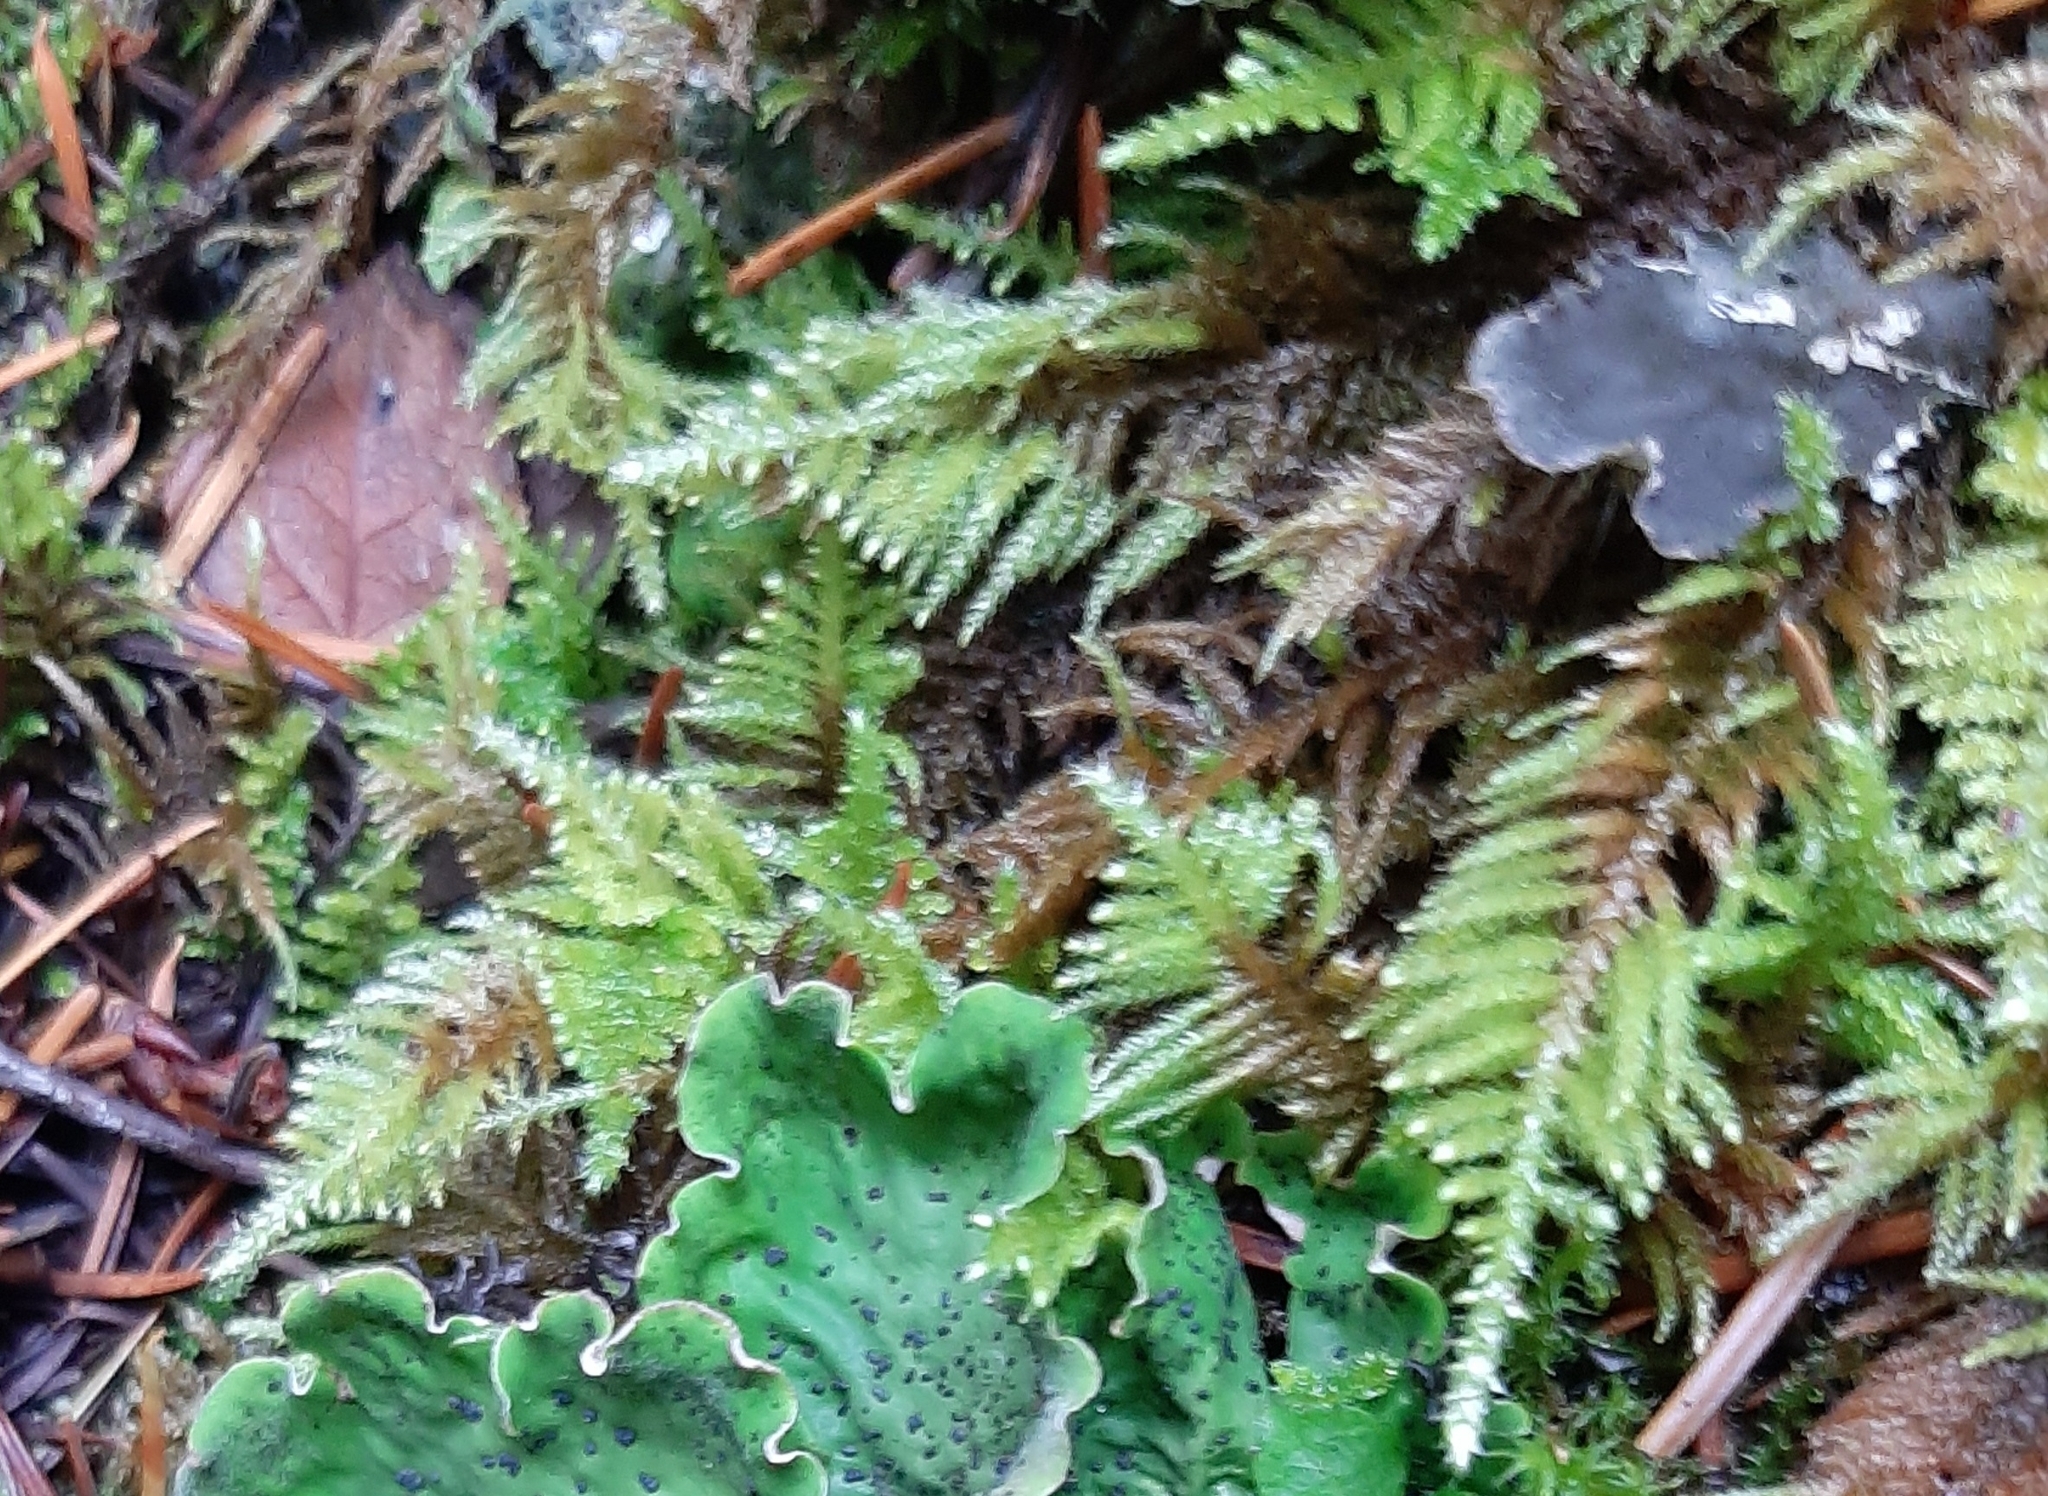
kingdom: Plantae
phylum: Bryophyta
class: Bryopsida
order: Hypnales
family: Brachytheciaceae
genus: Kindbergia
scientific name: Kindbergia oregana
